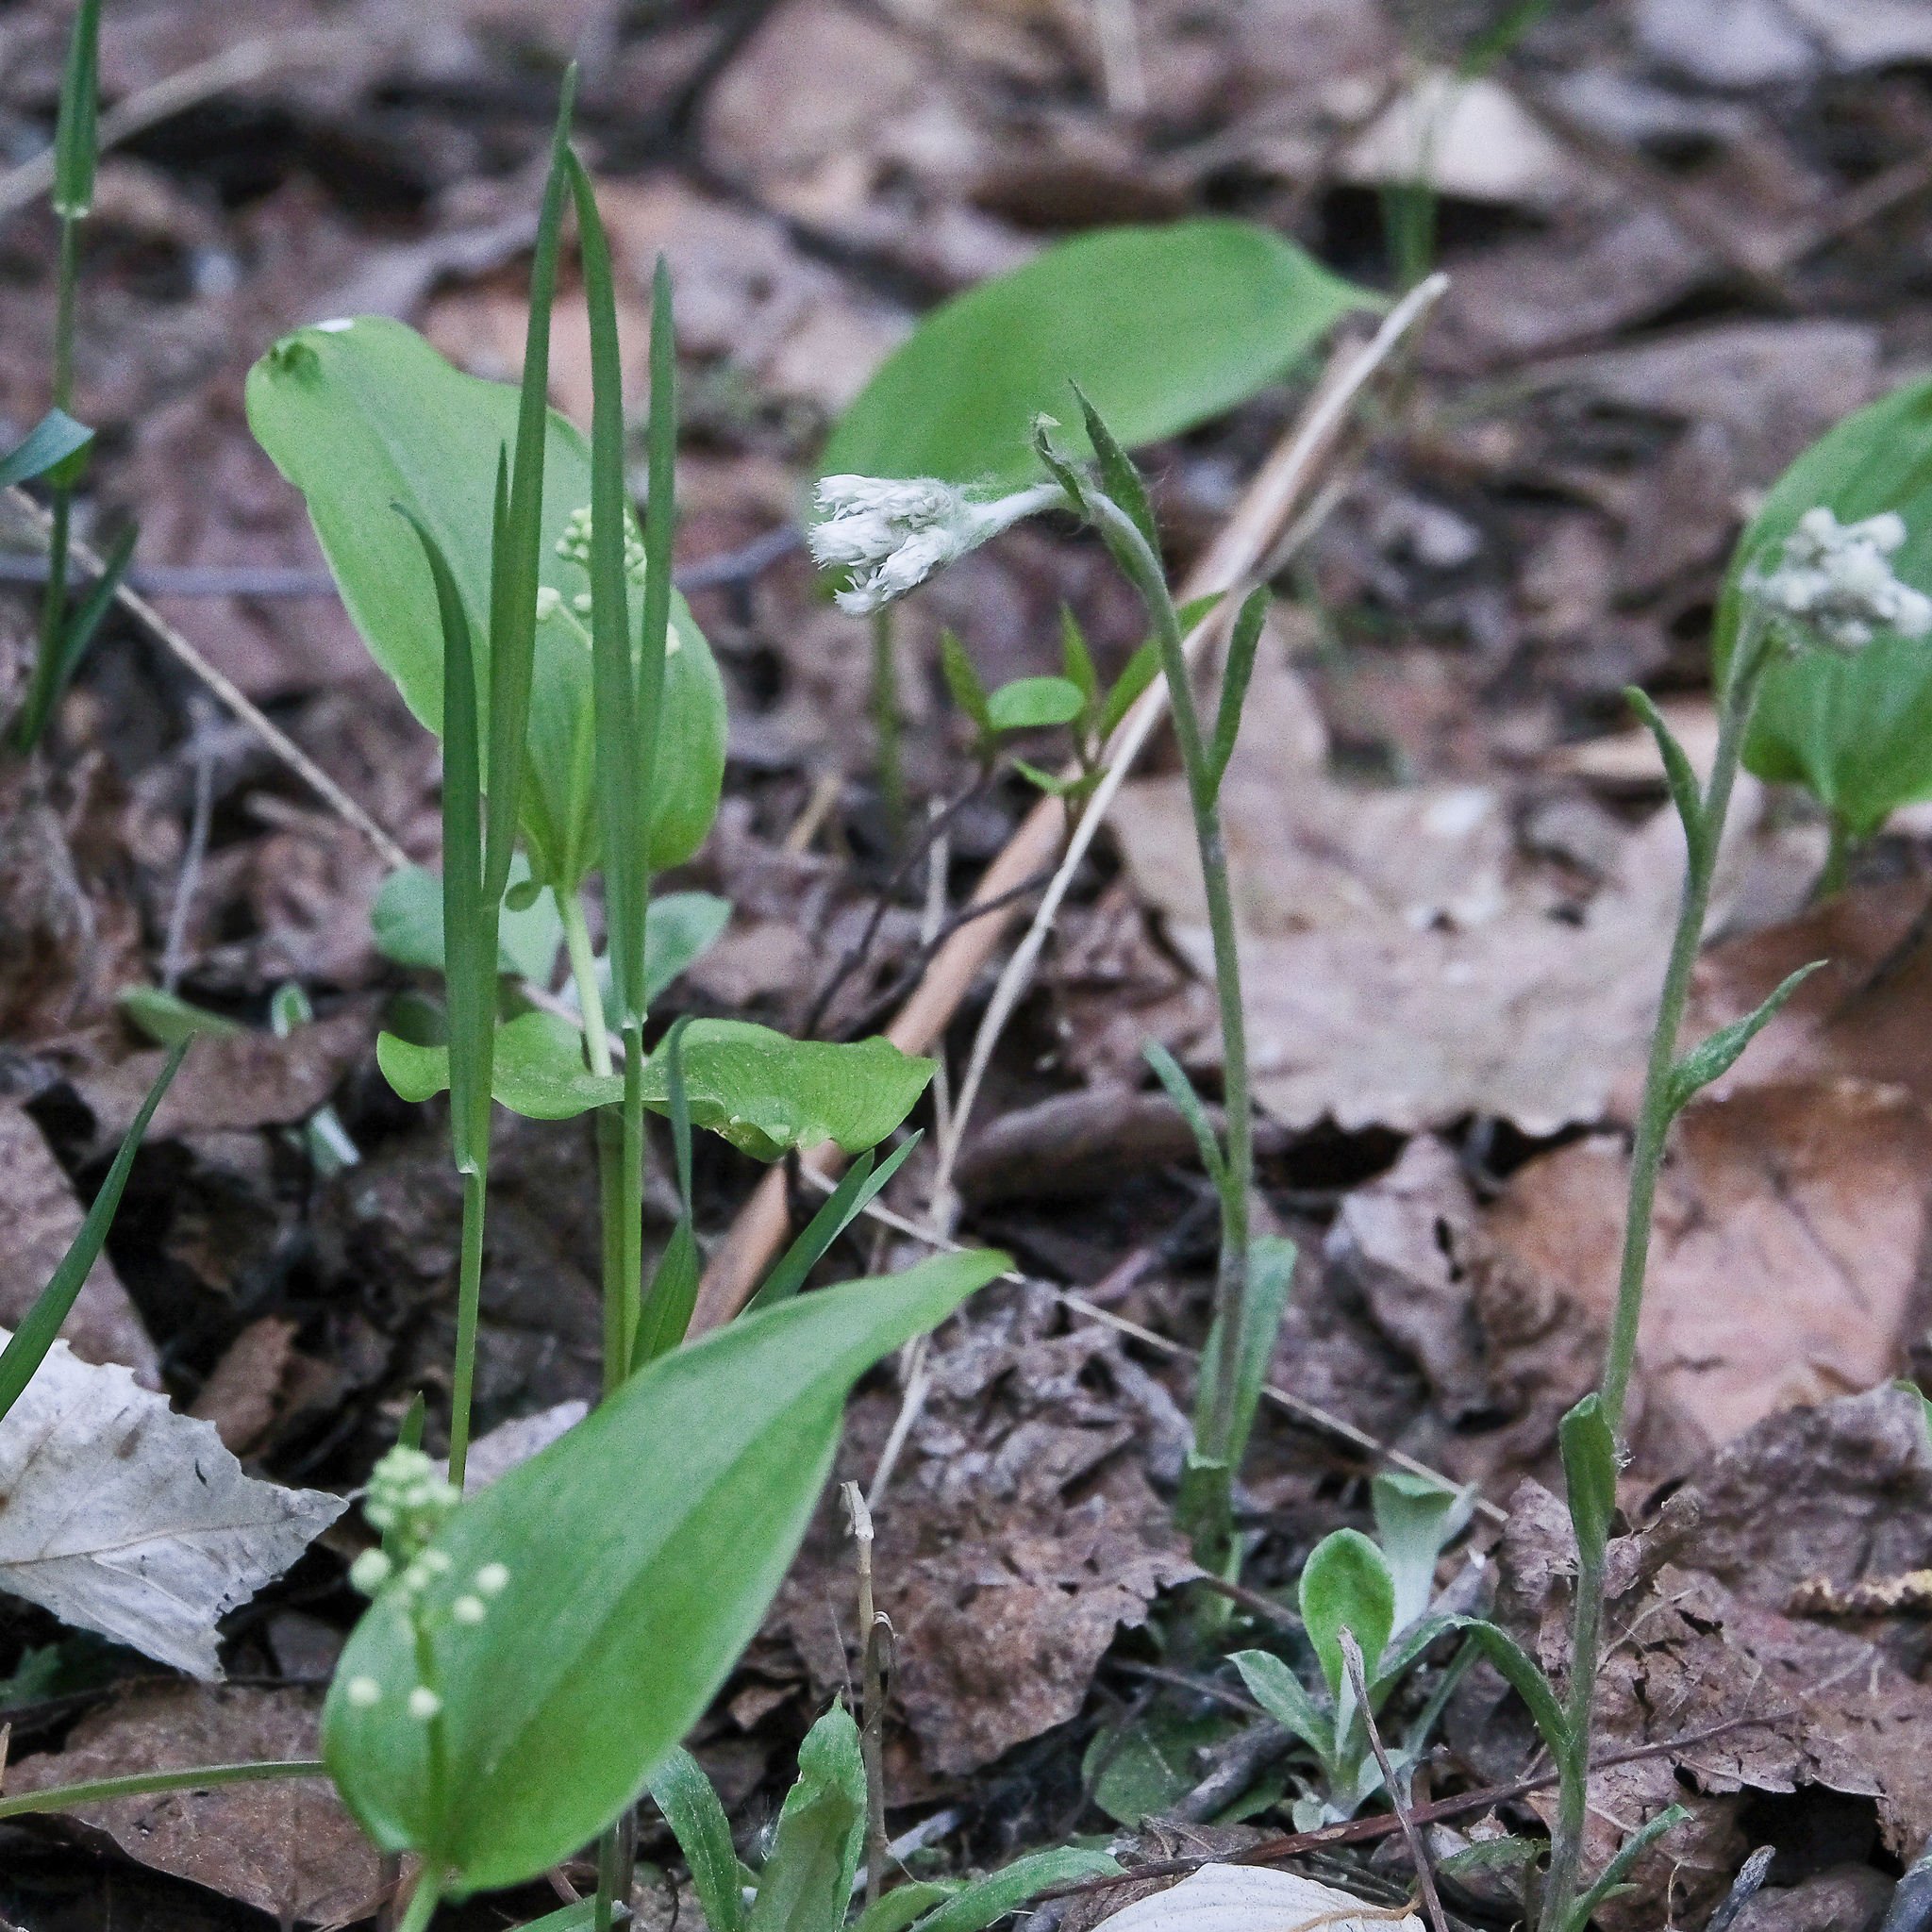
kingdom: Plantae
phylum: Tracheophyta
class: Liliopsida
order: Asparagales
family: Asparagaceae
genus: Maianthemum
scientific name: Maianthemum canadense
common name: False lily-of-the-valley
